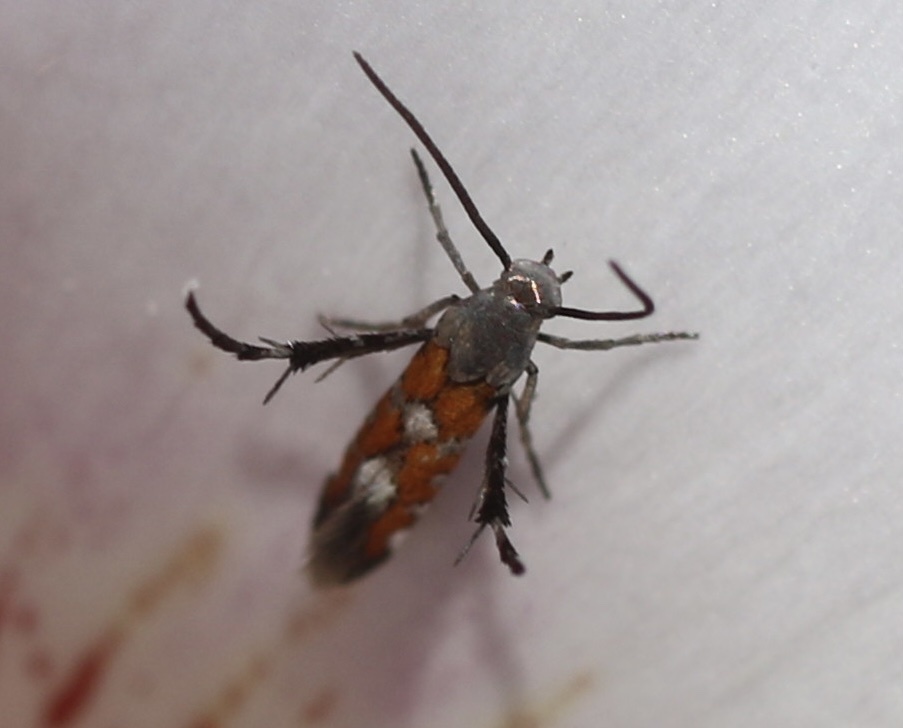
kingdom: Animalia
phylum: Arthropoda
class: Insecta
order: Lepidoptera
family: Heliodinidae
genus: Heliodines
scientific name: Heliodines Aetole extraneella
